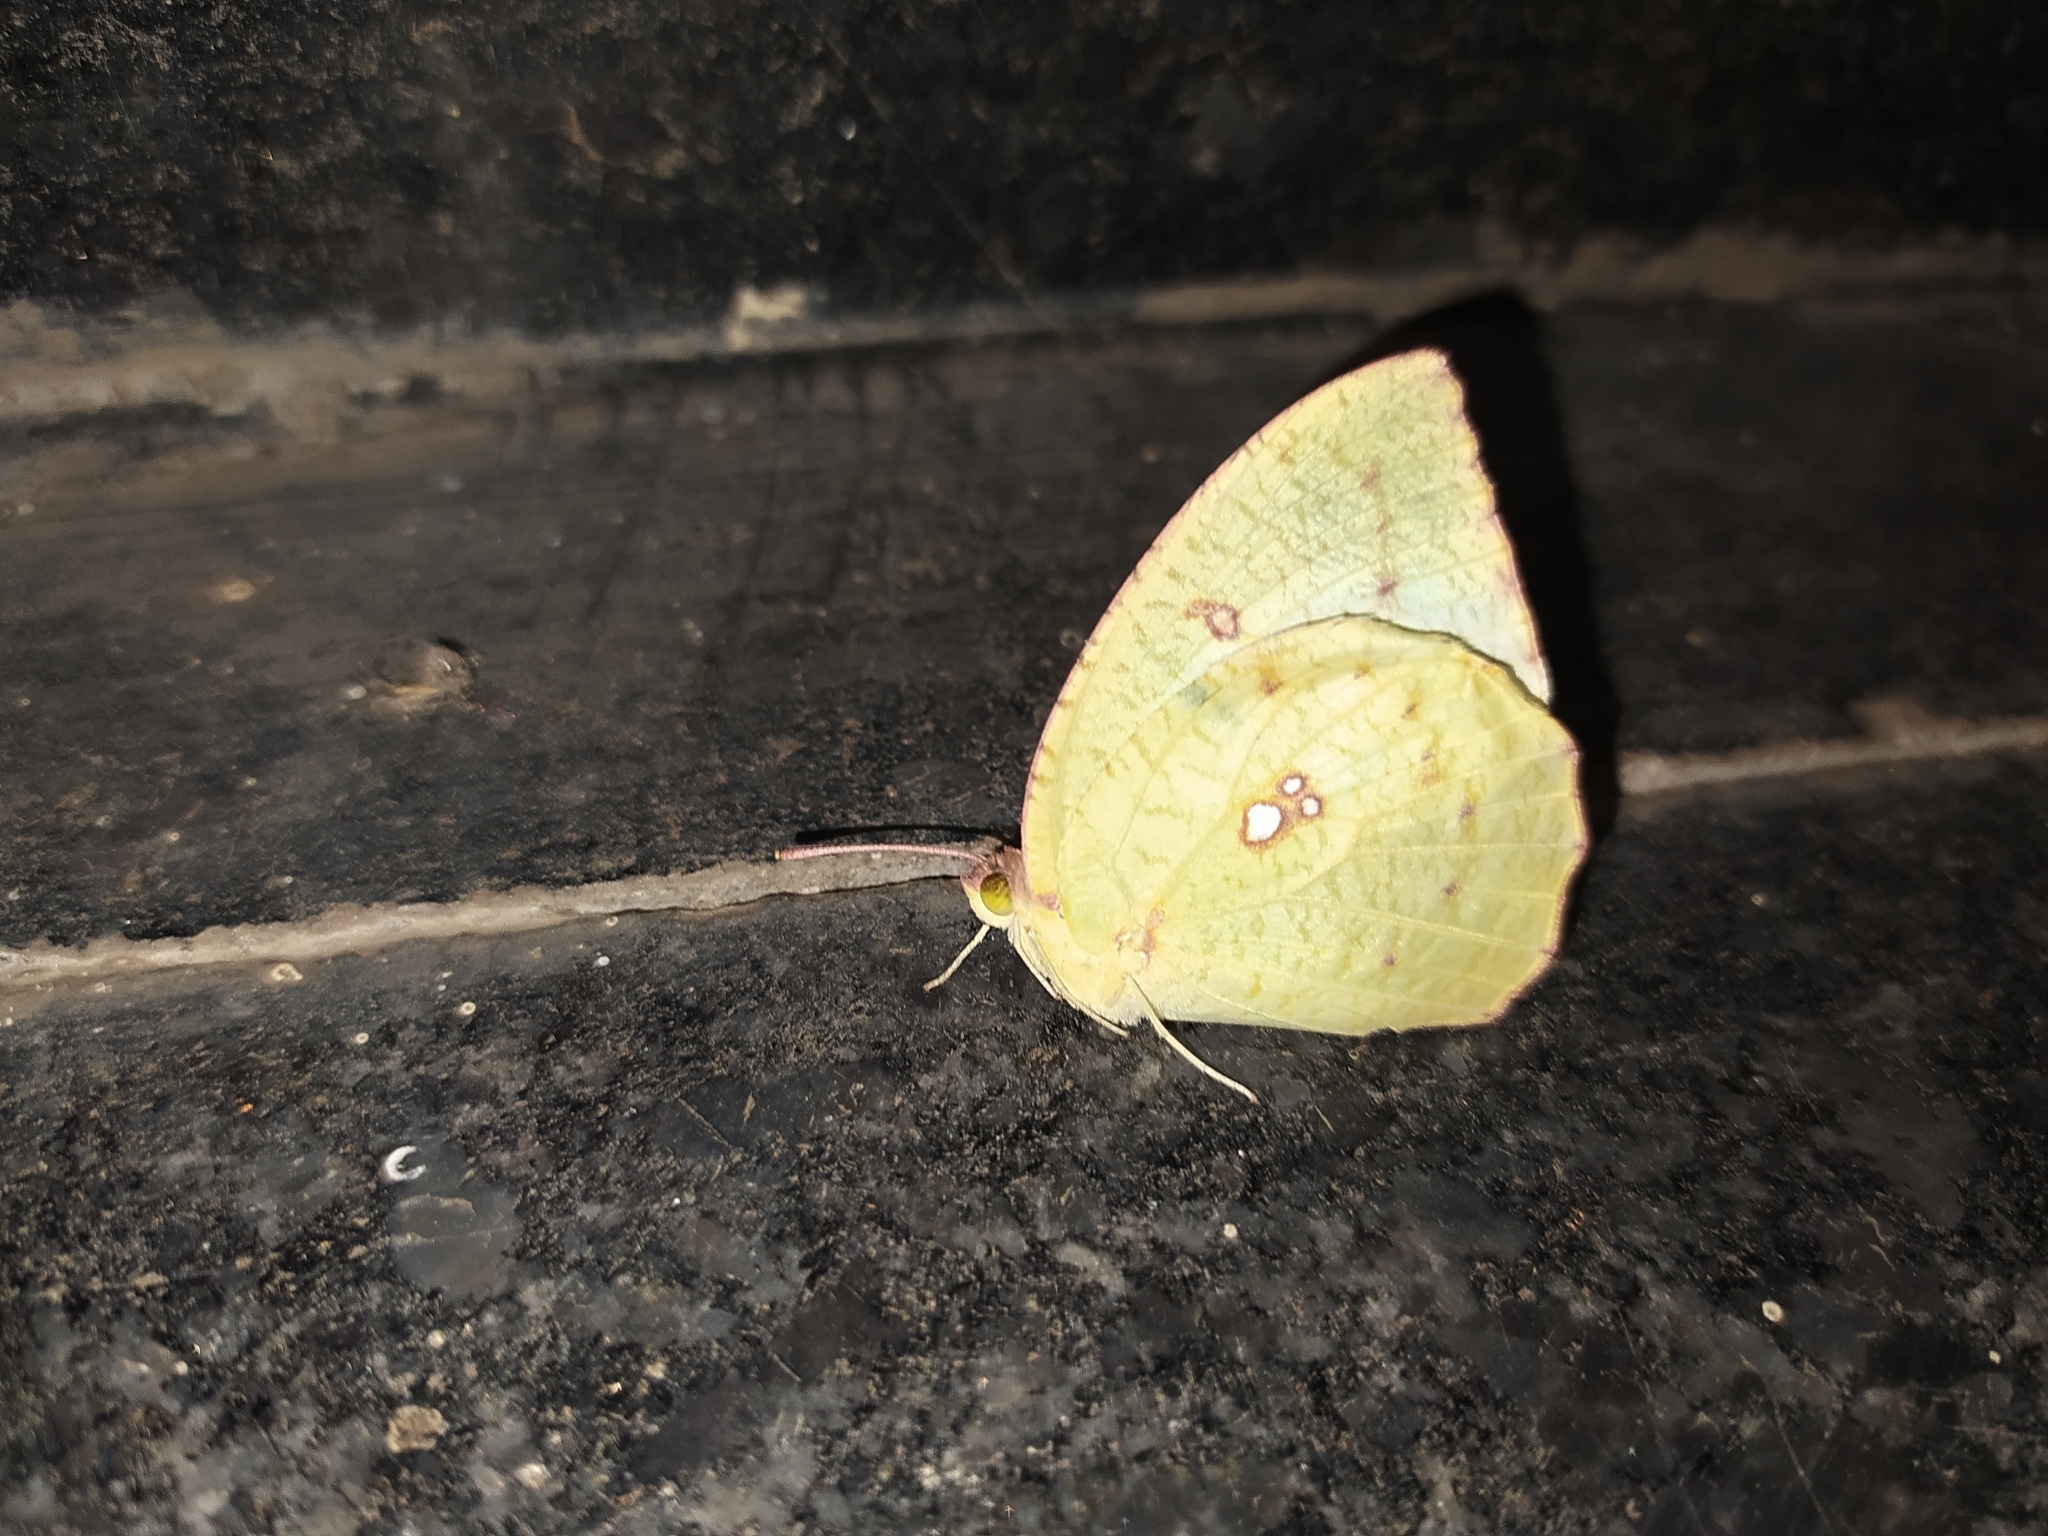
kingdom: Animalia
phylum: Arthropoda
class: Insecta
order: Lepidoptera
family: Pieridae
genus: Catopsilia
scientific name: Catopsilia pyranthe
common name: Mottled emigrant
